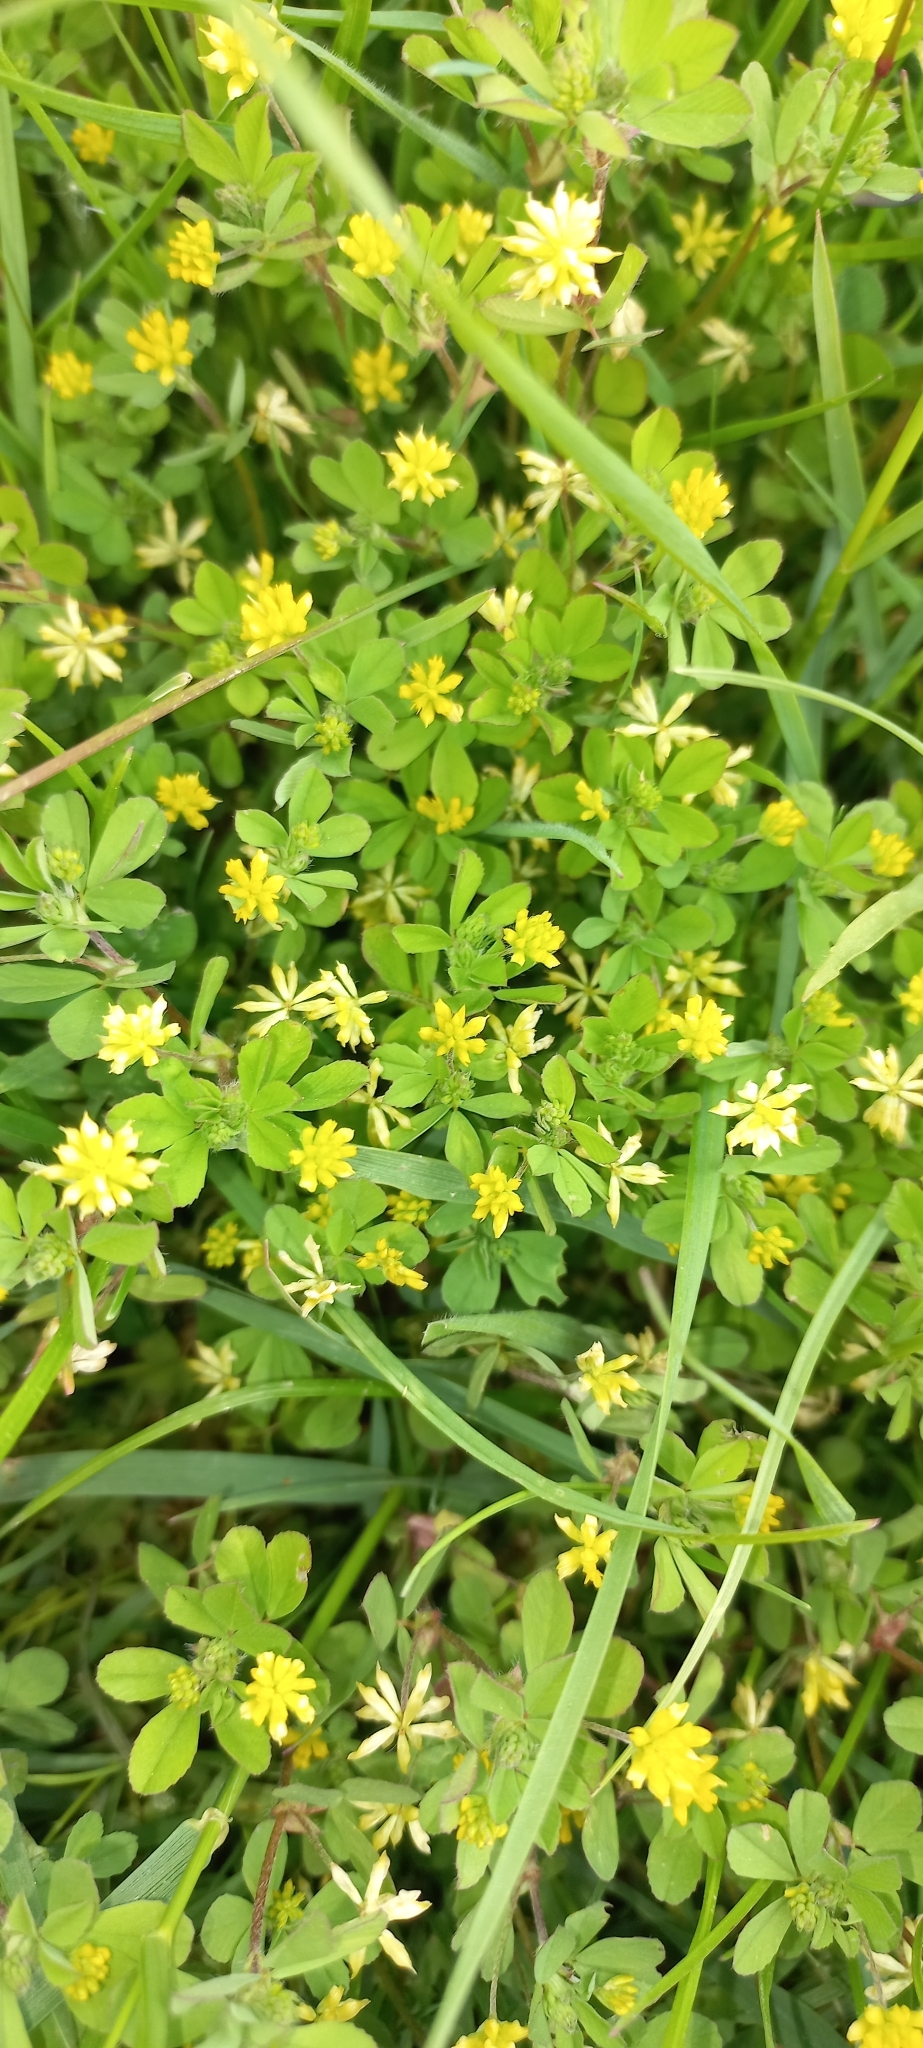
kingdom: Plantae
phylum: Tracheophyta
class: Magnoliopsida
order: Fabales
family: Fabaceae
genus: Trifolium
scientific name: Trifolium dubium
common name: Suckling clover
